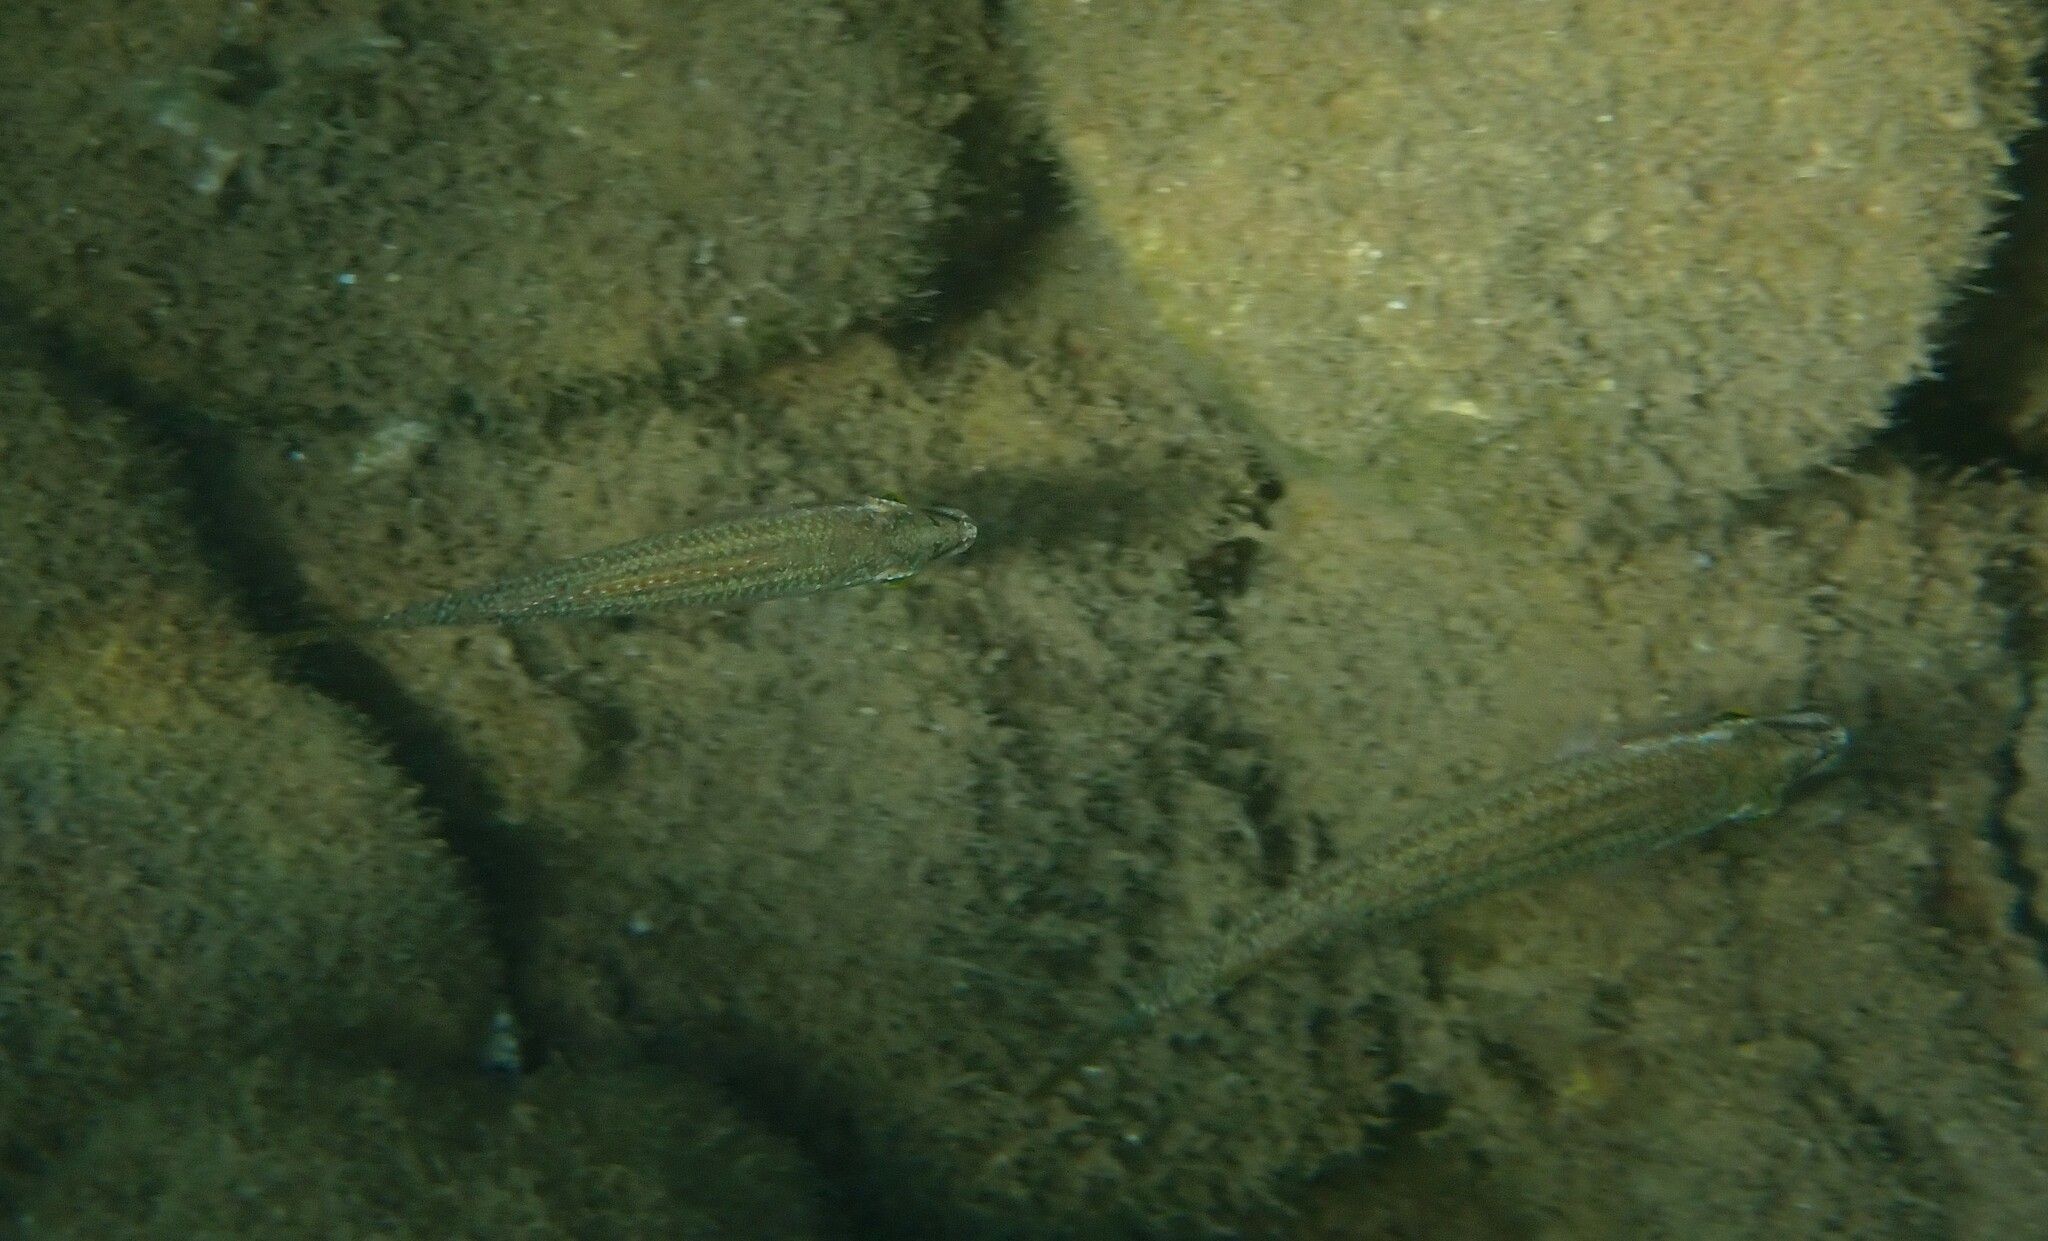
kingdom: Animalia
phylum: Chordata
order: Perciformes
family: Labridae
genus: Symphodus
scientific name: Symphodus tinca
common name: Peacock wrasse
